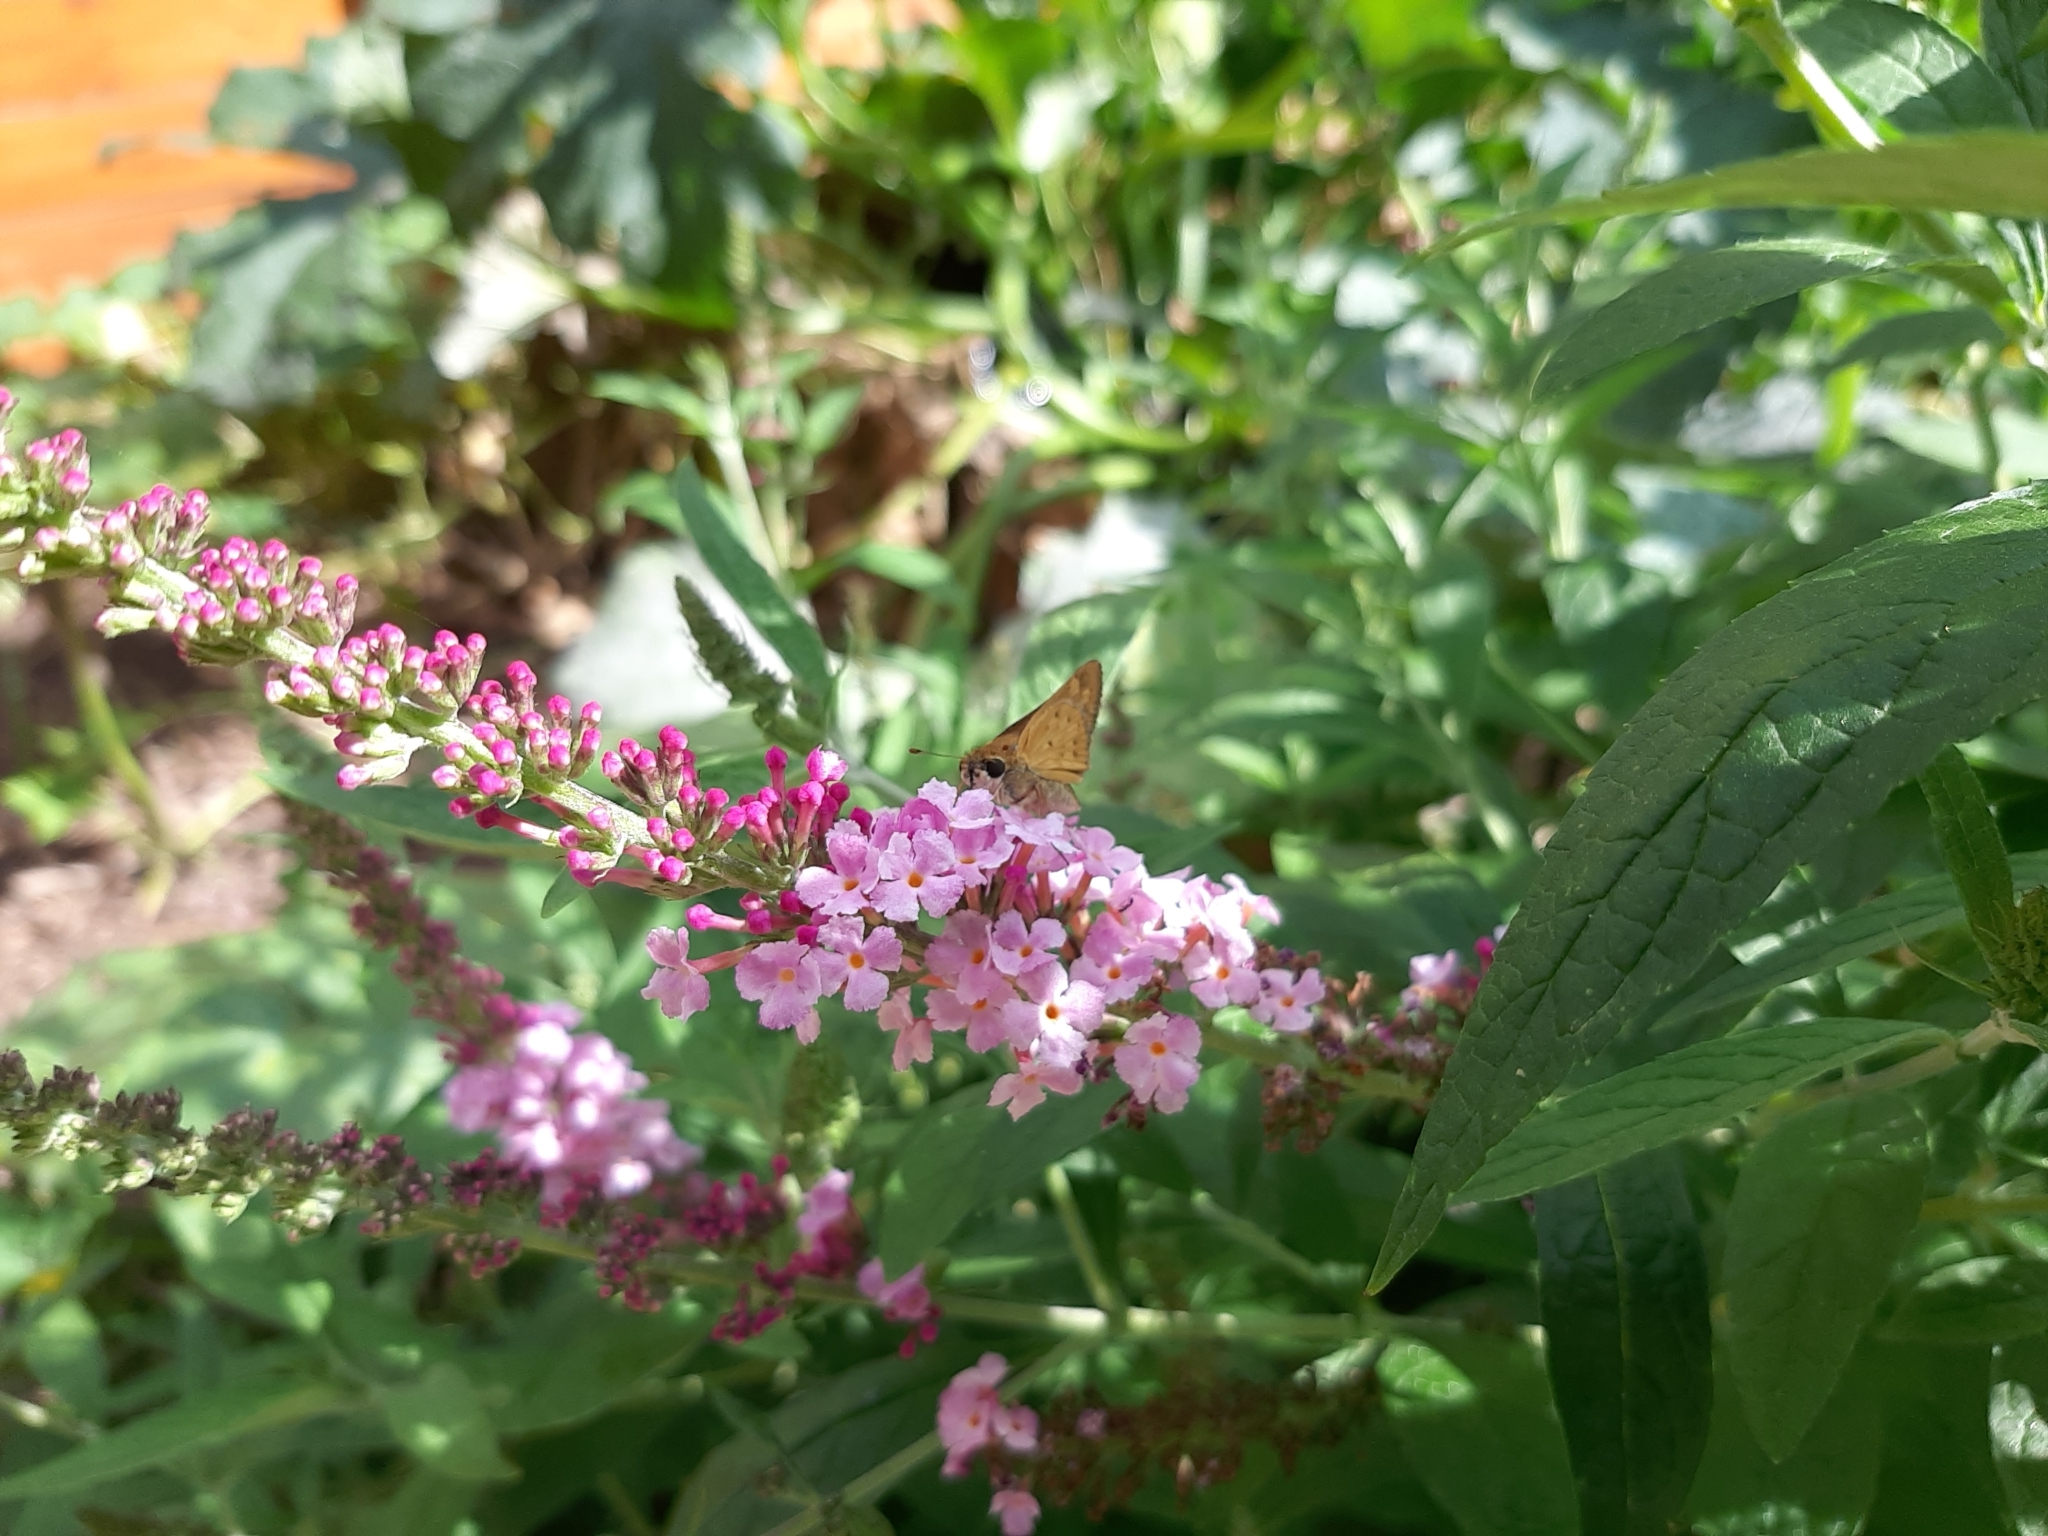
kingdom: Animalia
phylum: Arthropoda
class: Insecta
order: Lepidoptera
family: Hesperiidae
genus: Hylephila
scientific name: Hylephila phyleus
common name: Fiery skipper
